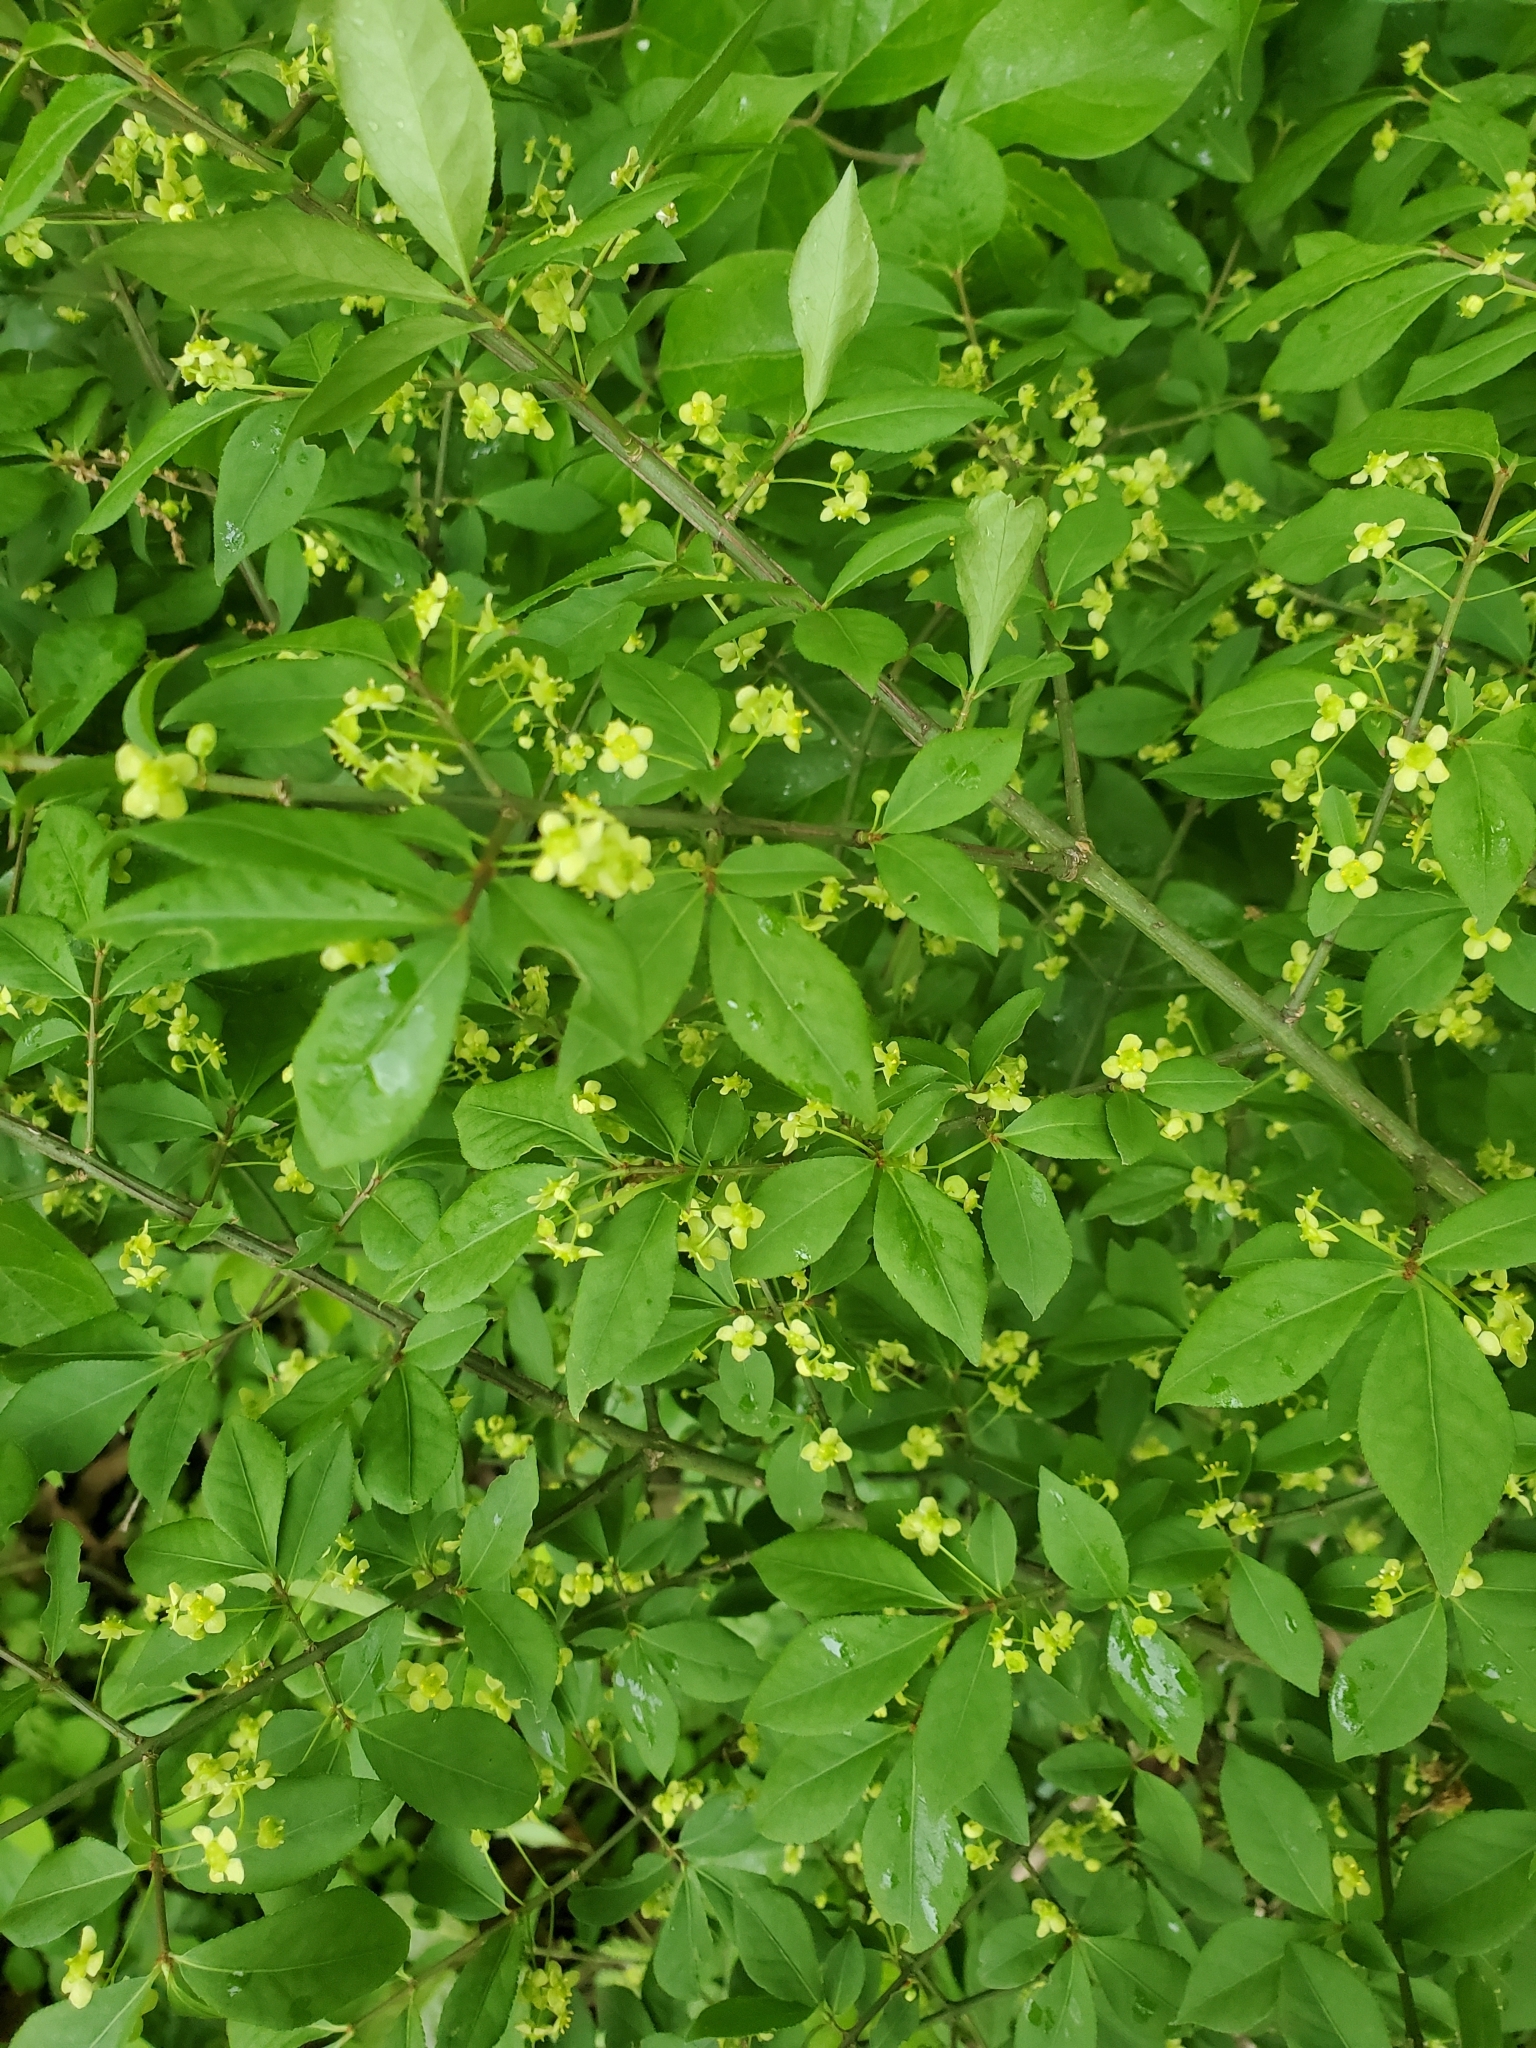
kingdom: Plantae
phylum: Tracheophyta
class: Magnoliopsida
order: Celastrales
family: Celastraceae
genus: Euonymus
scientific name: Euonymus alatus
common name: Winged euonymus
